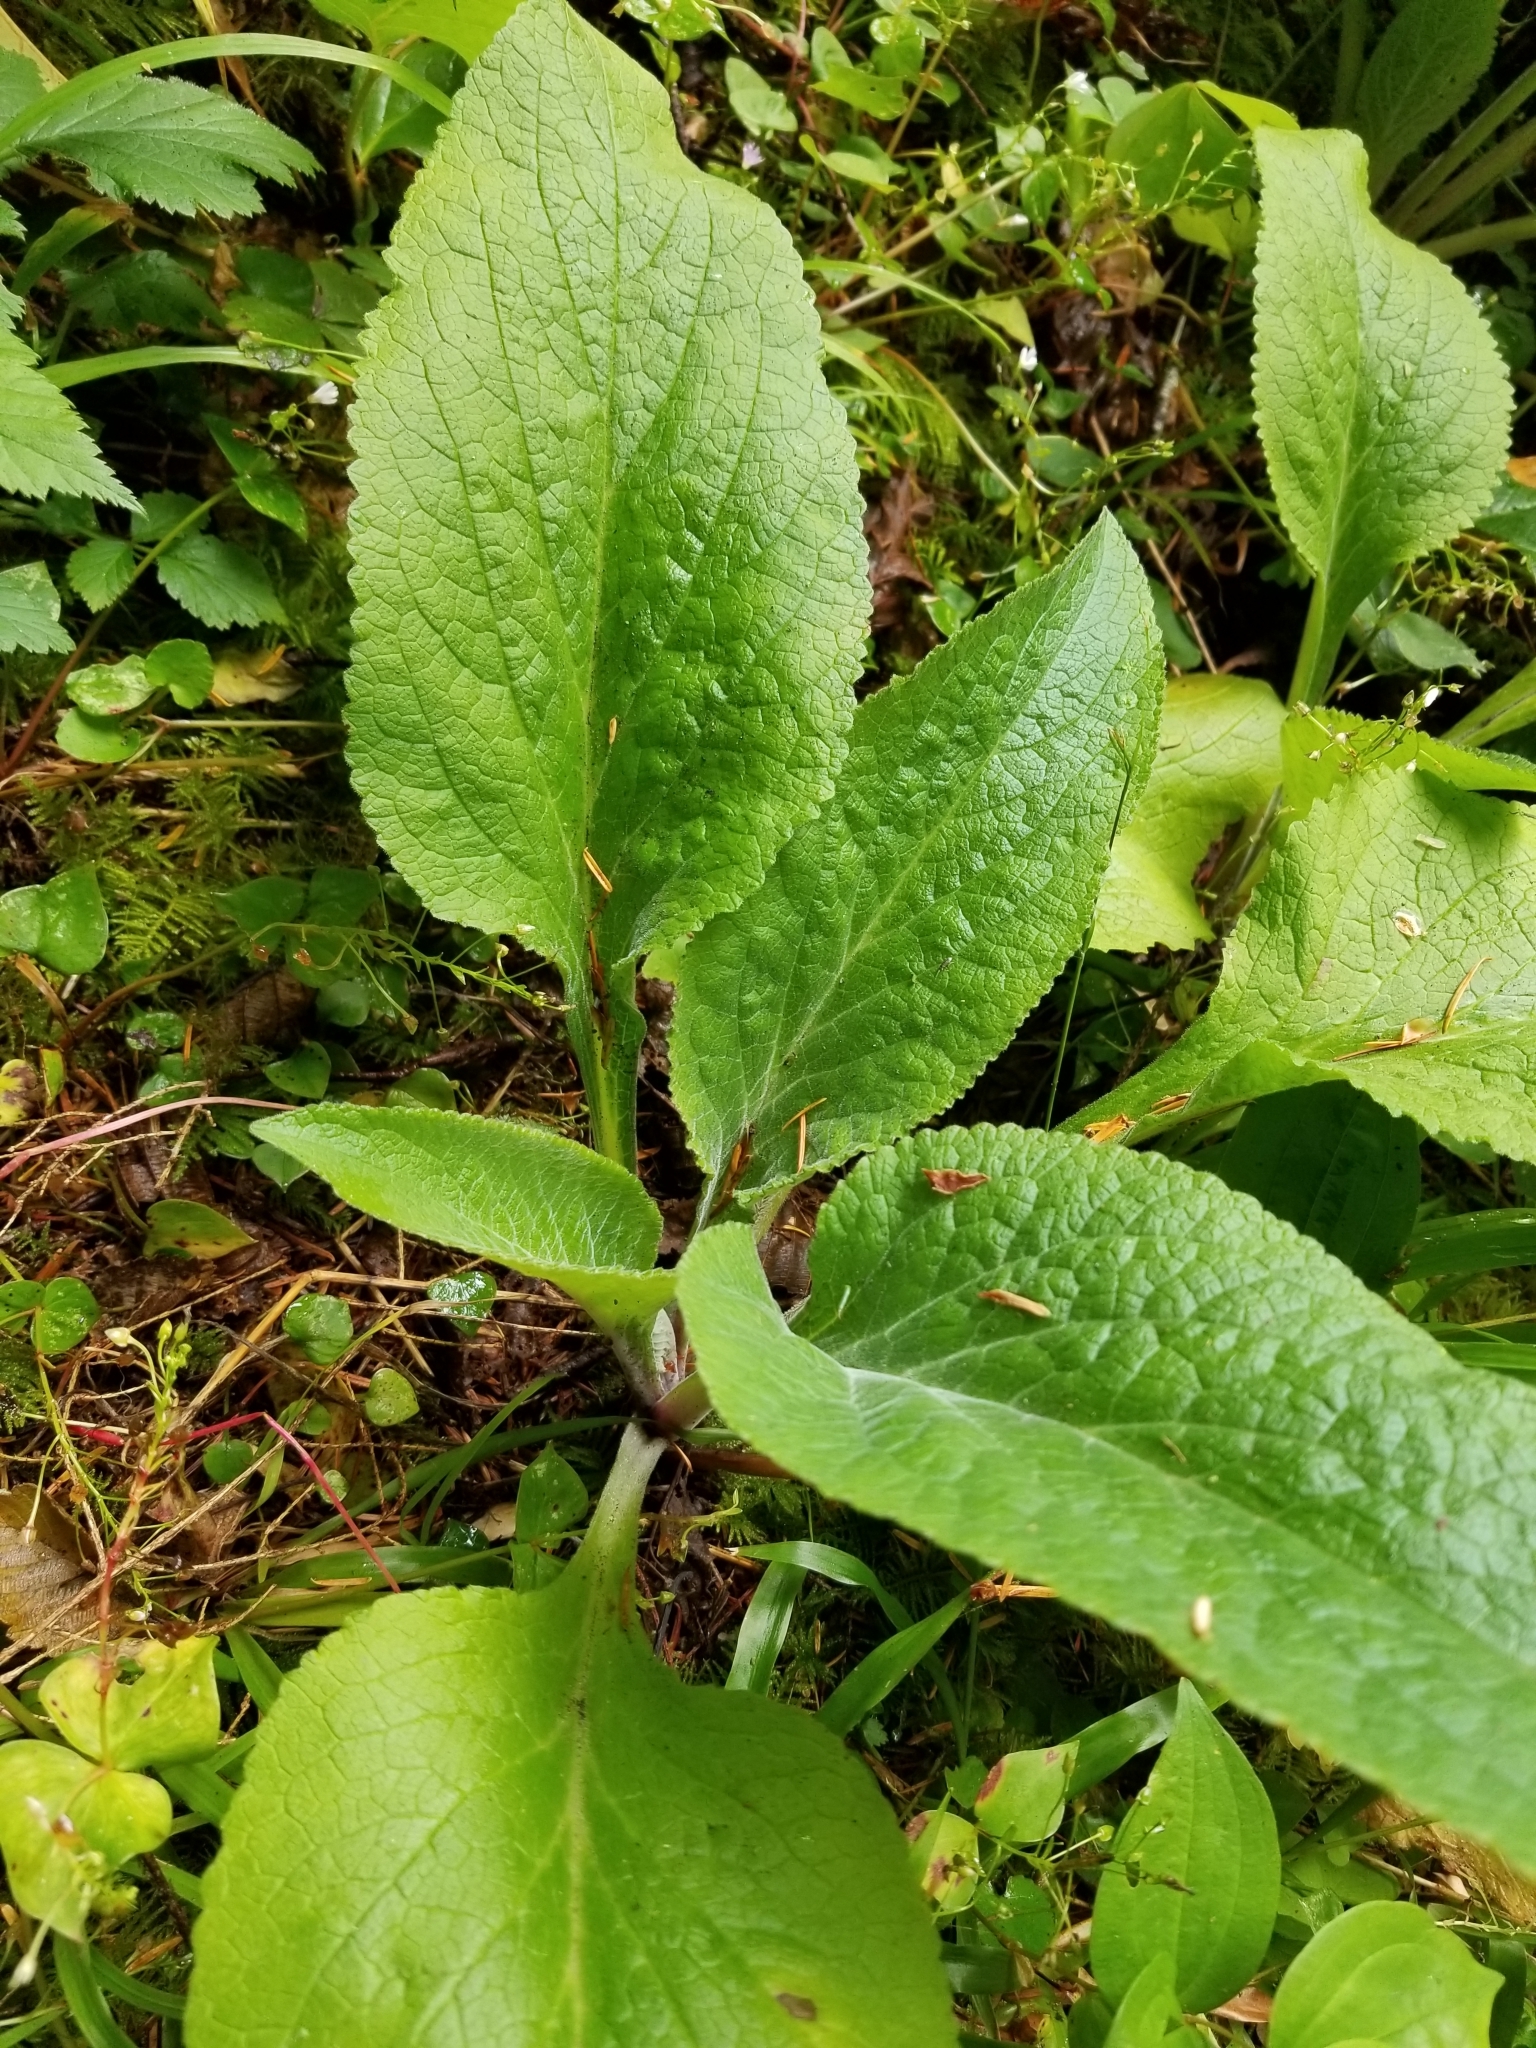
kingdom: Plantae
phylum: Tracheophyta
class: Magnoliopsida
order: Lamiales
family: Plantaginaceae
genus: Digitalis
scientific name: Digitalis purpurea
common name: Foxglove
